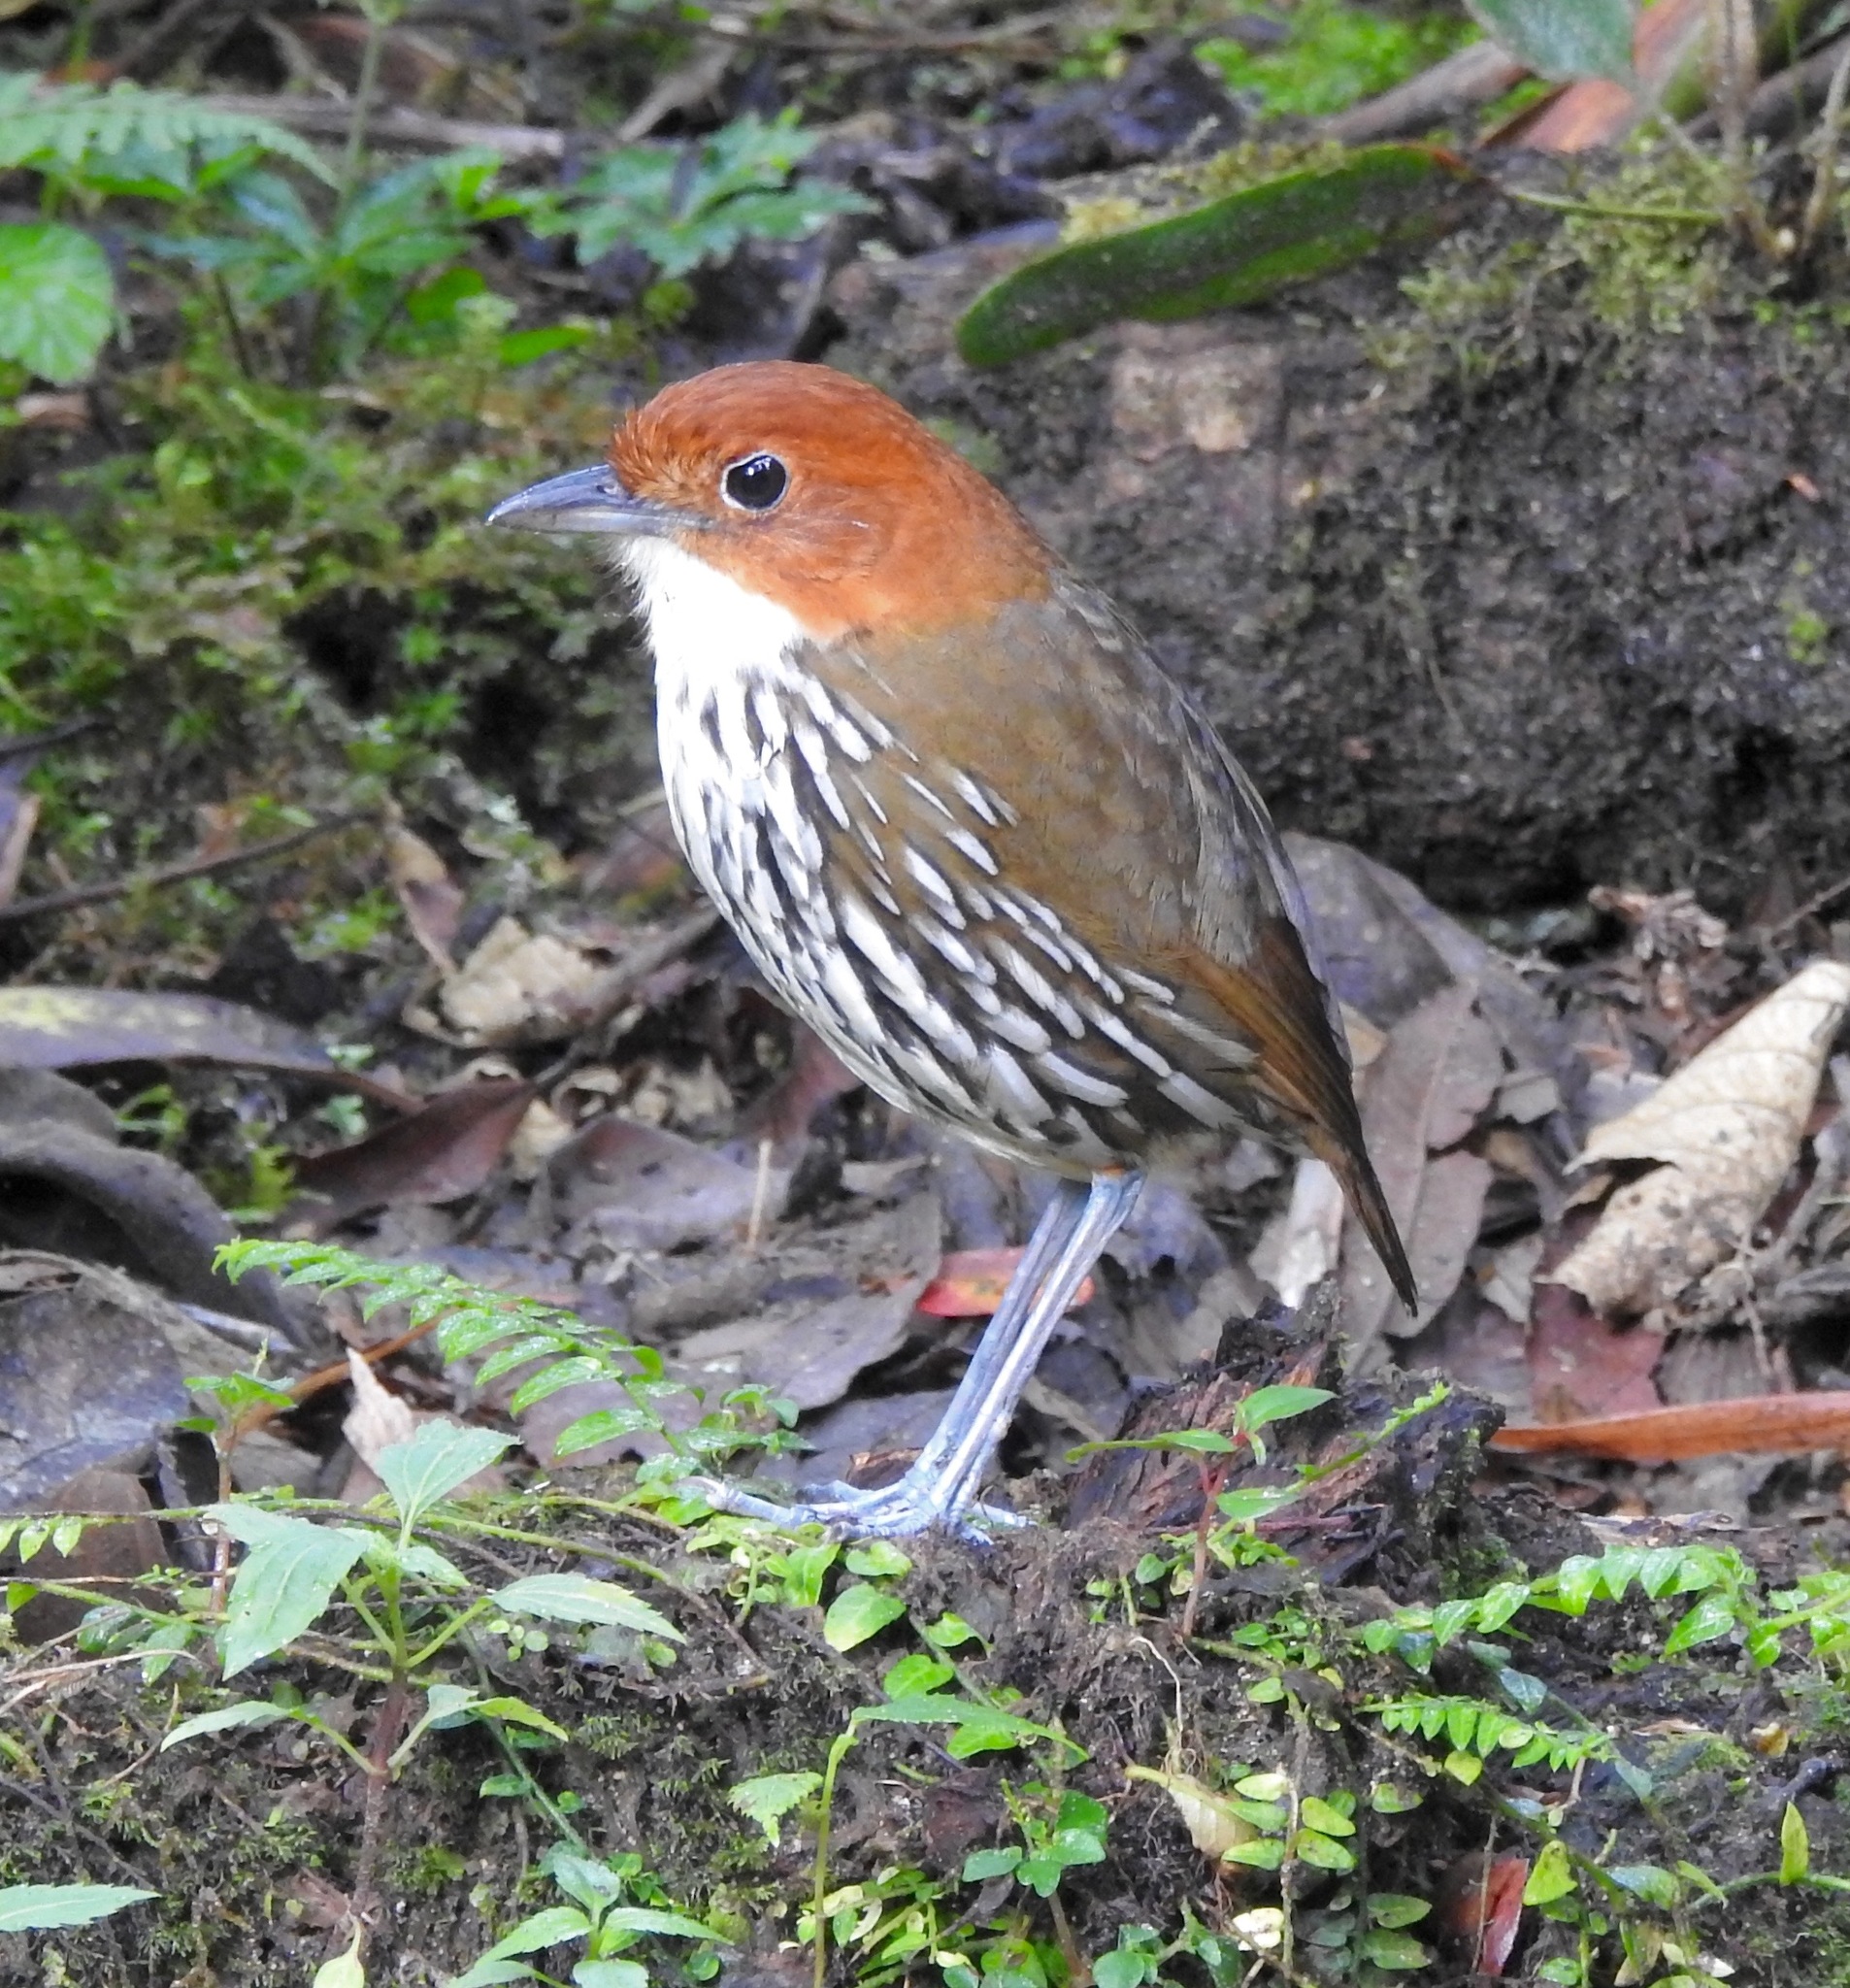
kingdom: Animalia
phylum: Chordata
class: Aves
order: Passeriformes
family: Grallariidae
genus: Grallaria
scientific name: Grallaria ruficapilla
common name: Chestnut-crowned antpitta
